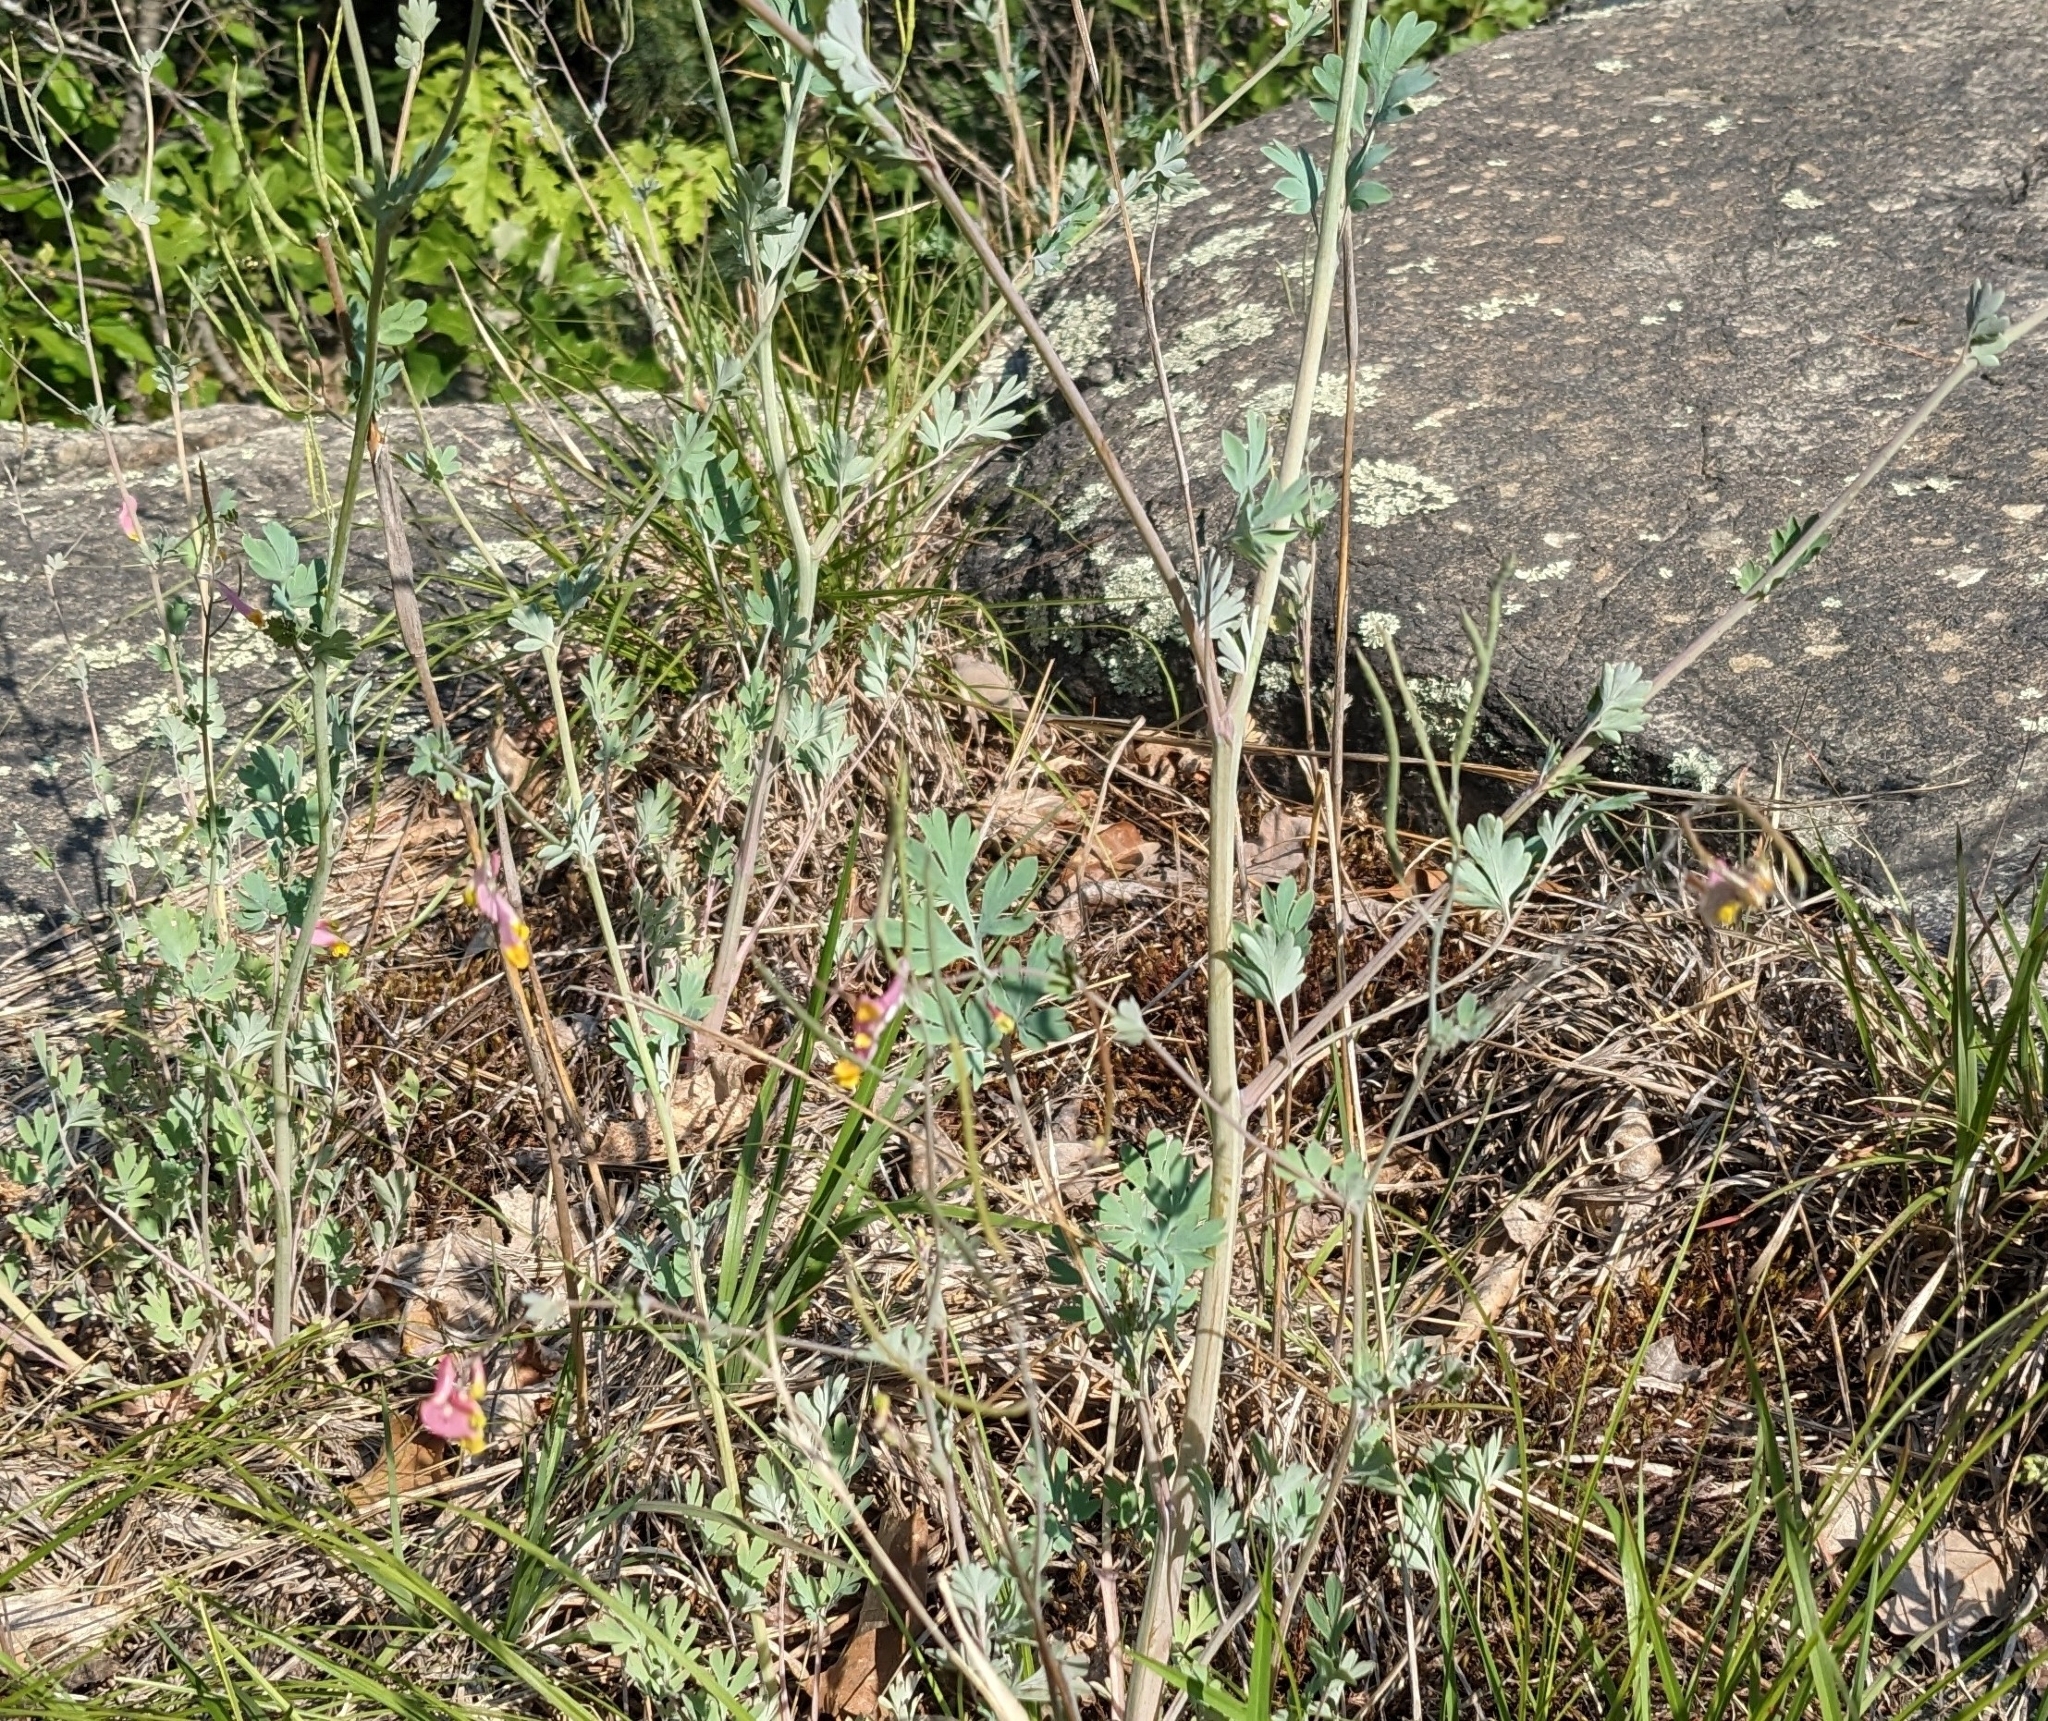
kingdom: Plantae
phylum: Tracheophyta
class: Magnoliopsida
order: Ranunculales
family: Papaveraceae
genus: Capnoides
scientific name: Capnoides sempervirens
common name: Rock harlequin
